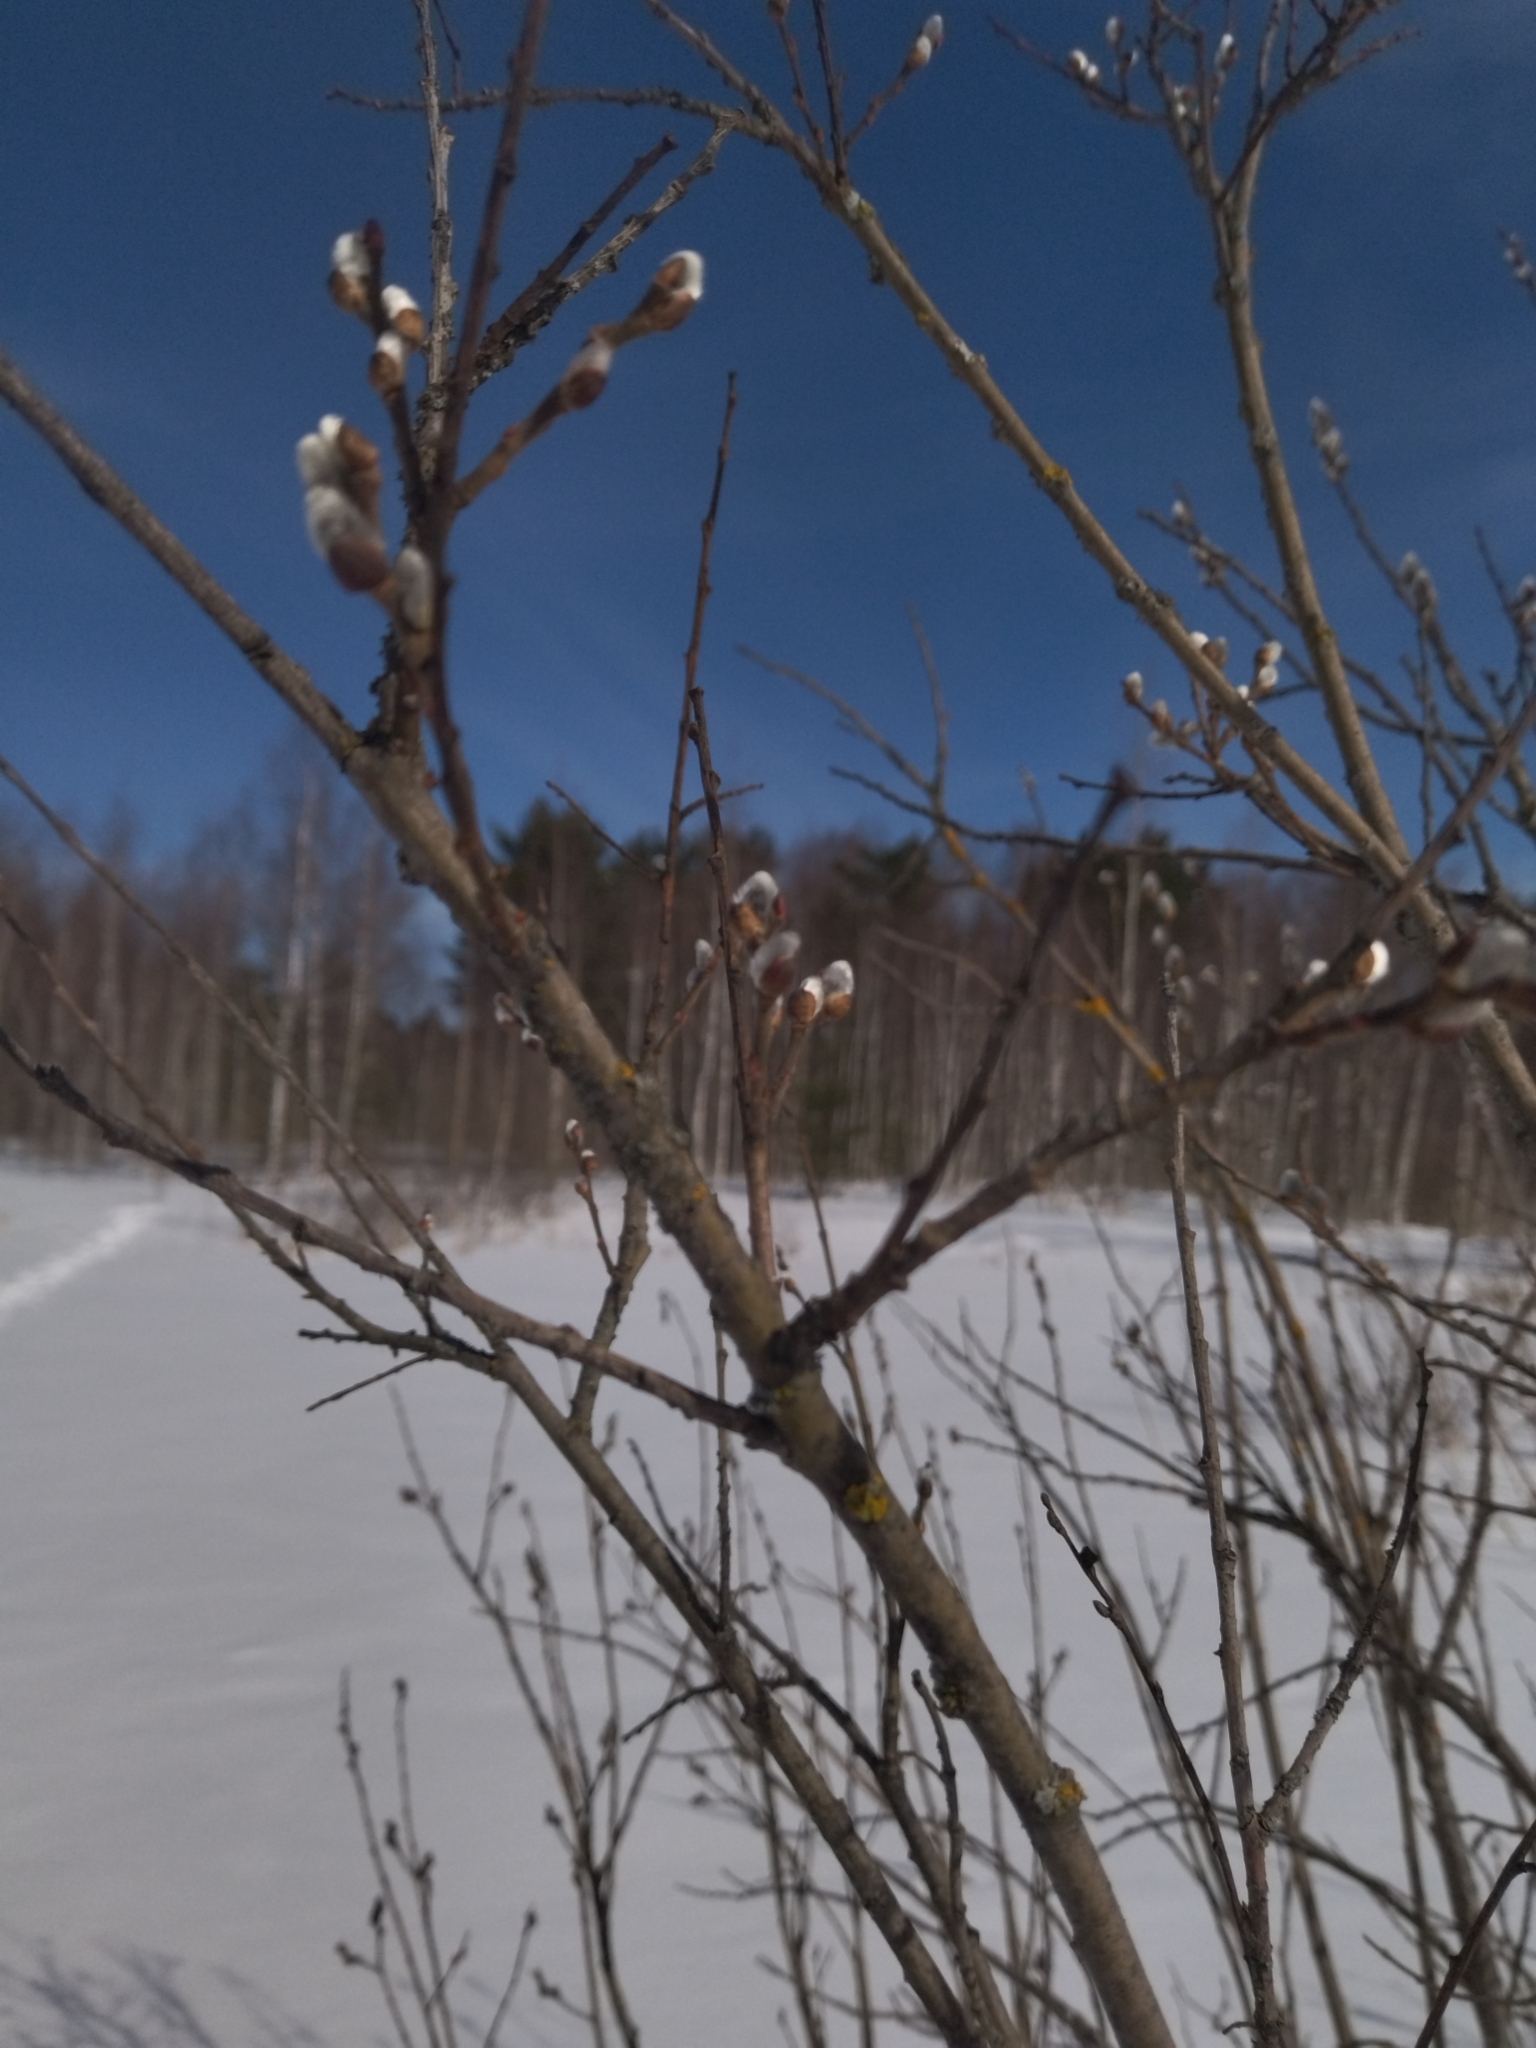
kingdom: Plantae
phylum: Tracheophyta
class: Magnoliopsida
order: Malpighiales
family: Salicaceae
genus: Salix
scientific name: Salix caprea
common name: Goat willow
